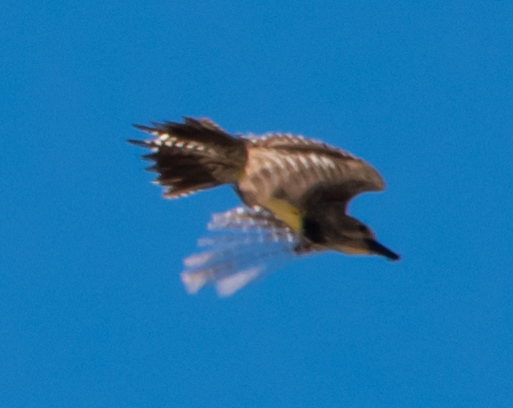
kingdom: Animalia
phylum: Chordata
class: Aves
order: Piciformes
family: Picidae
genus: Colaptes
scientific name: Colaptes auratus
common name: Northern flicker
